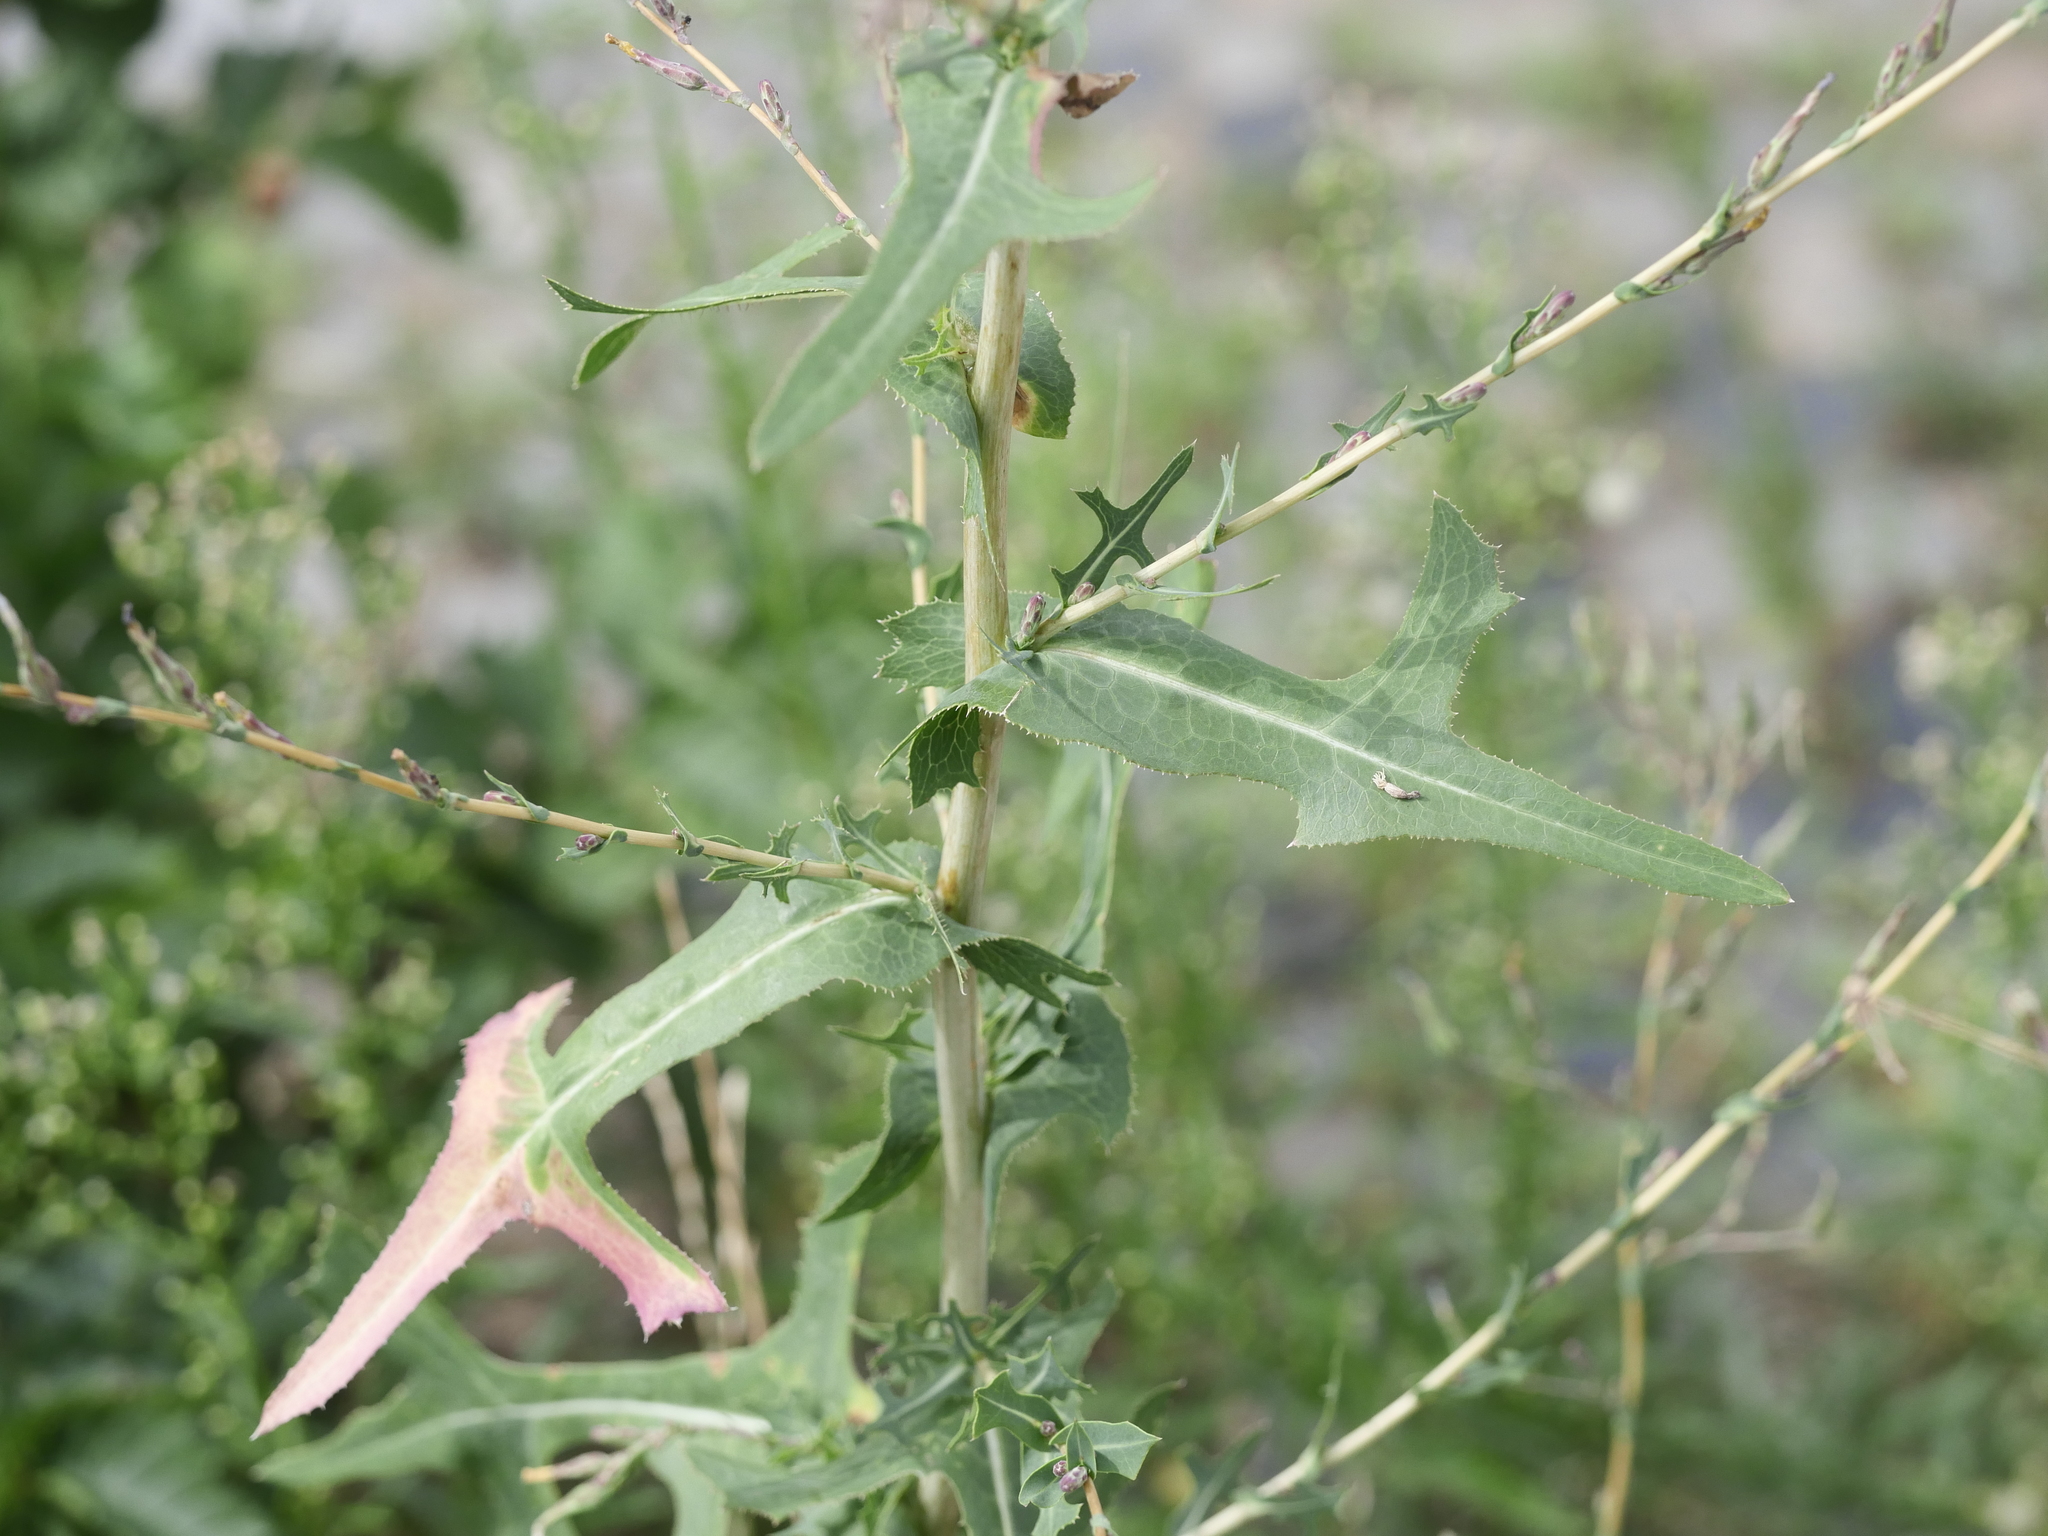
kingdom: Plantae
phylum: Tracheophyta
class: Magnoliopsida
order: Asterales
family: Asteraceae
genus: Lactuca
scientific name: Lactuca serriola
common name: Prickly lettuce
